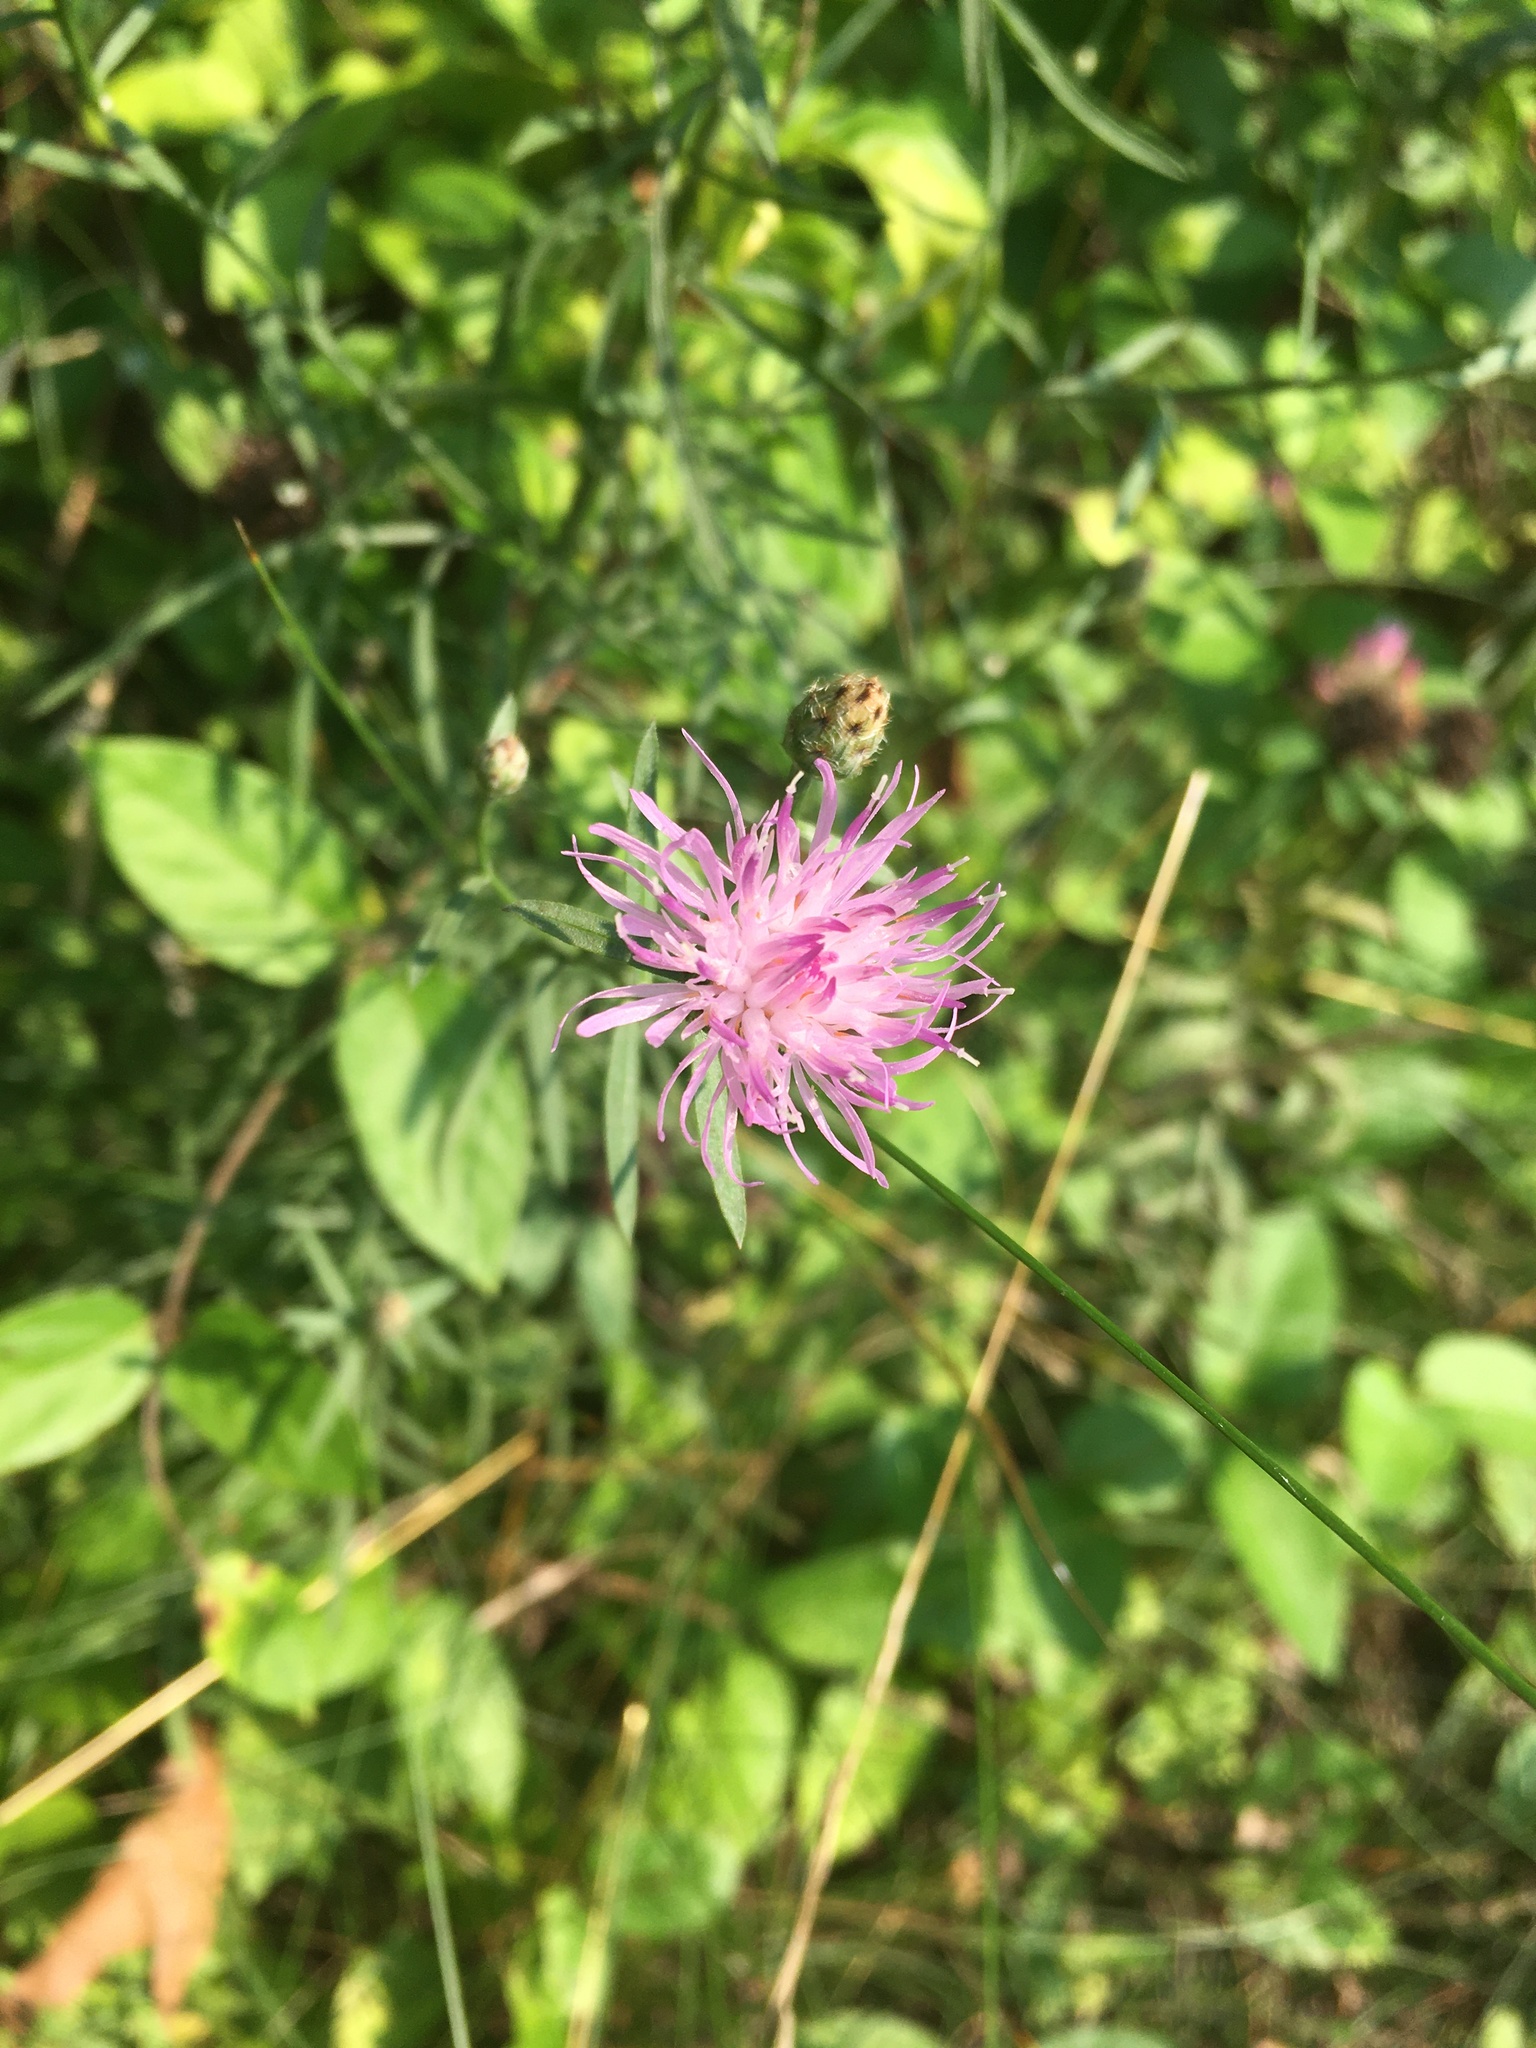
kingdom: Plantae
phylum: Tracheophyta
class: Magnoliopsida
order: Asterales
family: Asteraceae
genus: Centaurea
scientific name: Centaurea stoebe
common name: Spotted knapweed
